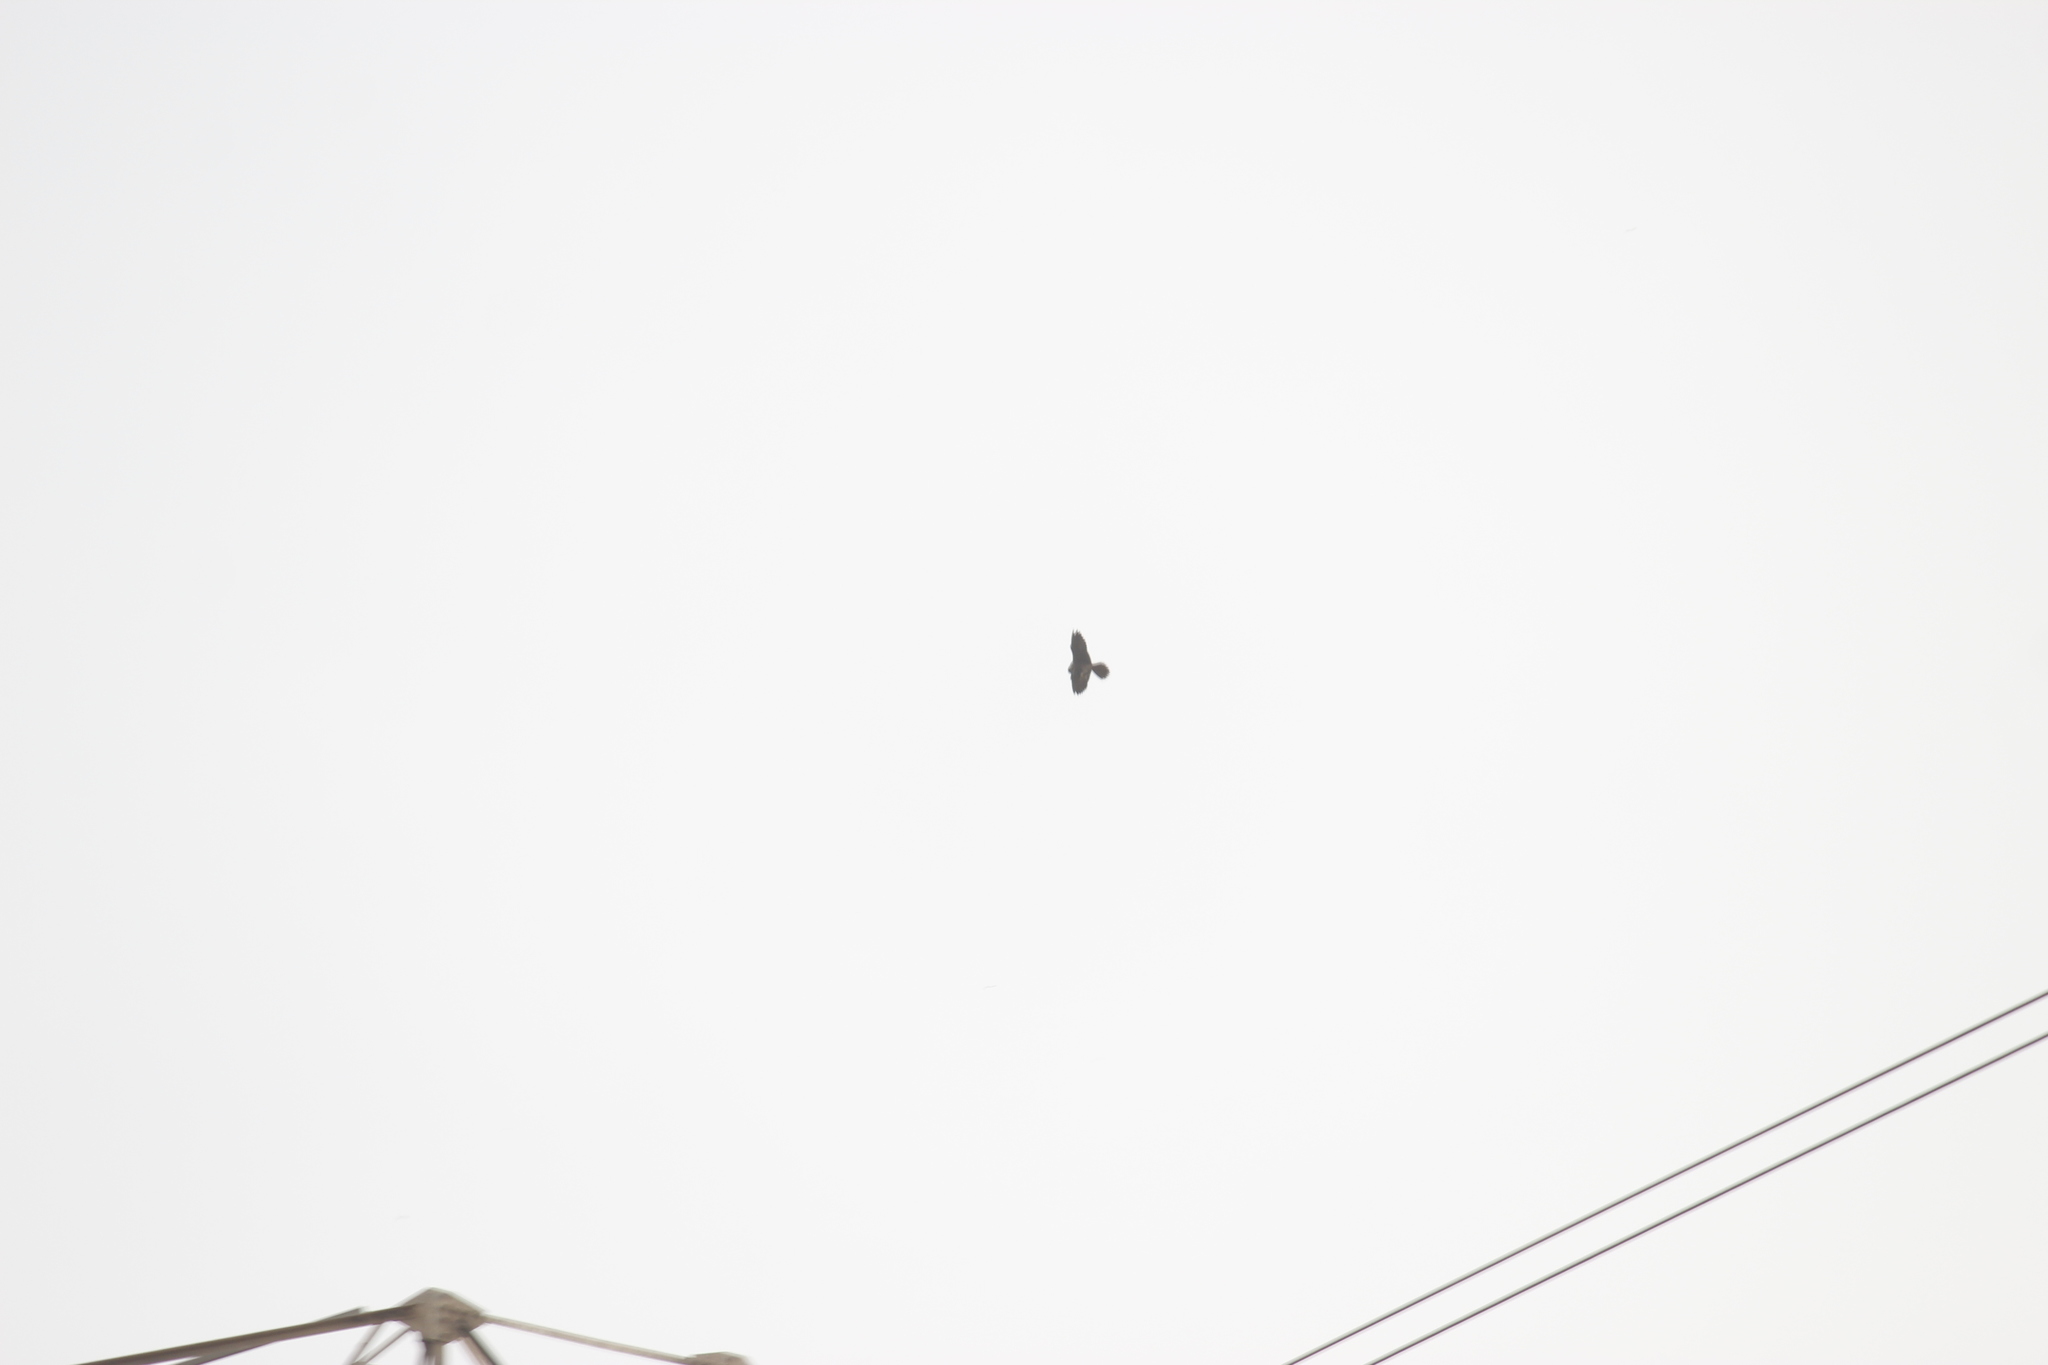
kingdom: Animalia
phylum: Chordata
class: Aves
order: Accipitriformes
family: Accipitridae
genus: Parabuteo
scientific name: Parabuteo unicinctus
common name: Harris's hawk
